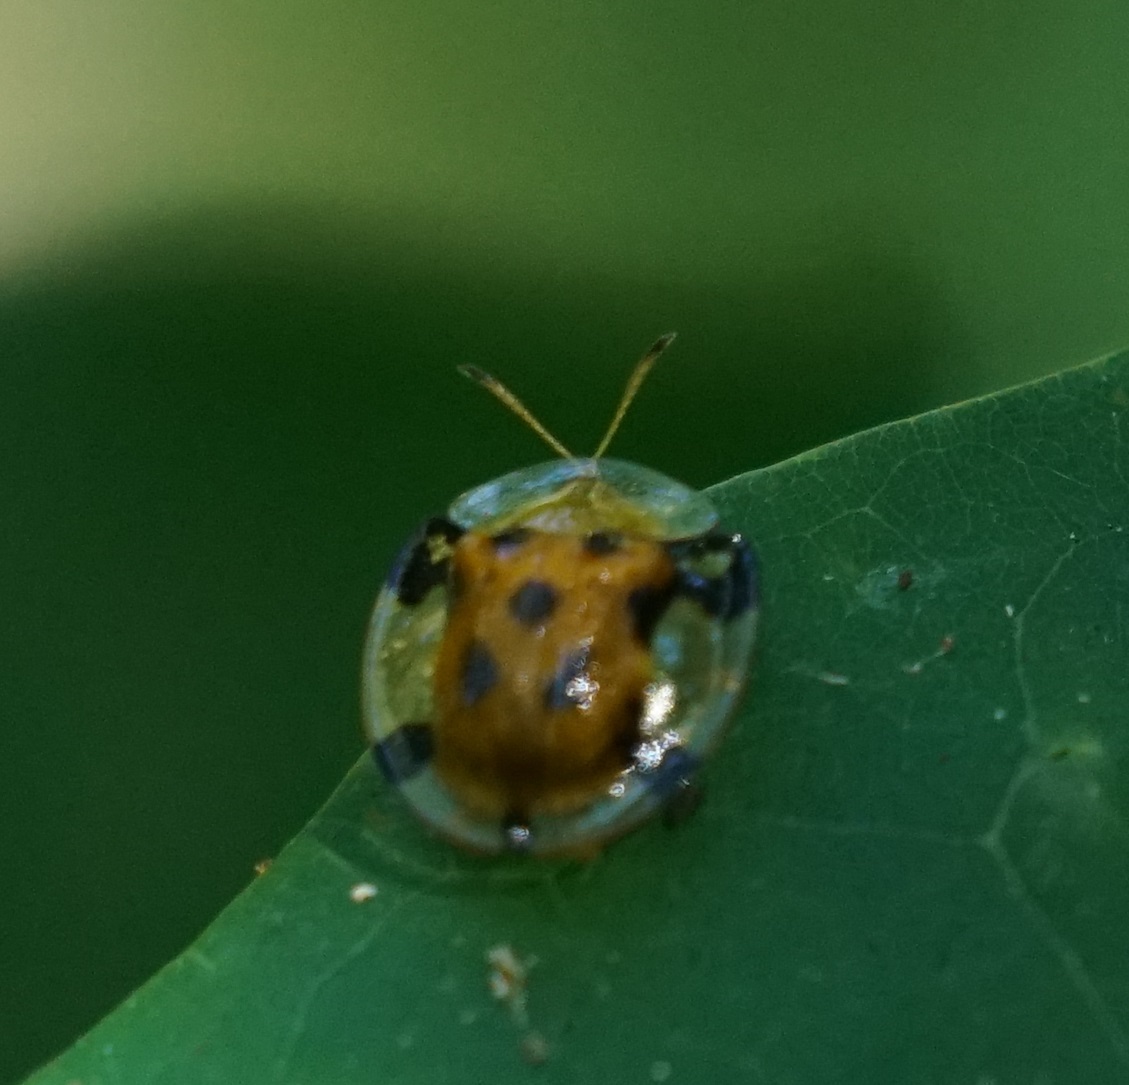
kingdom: Animalia
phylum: Arthropoda
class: Insecta
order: Coleoptera
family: Chrysomelidae
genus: Aspidimorpha
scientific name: Aspidimorpha punctum
